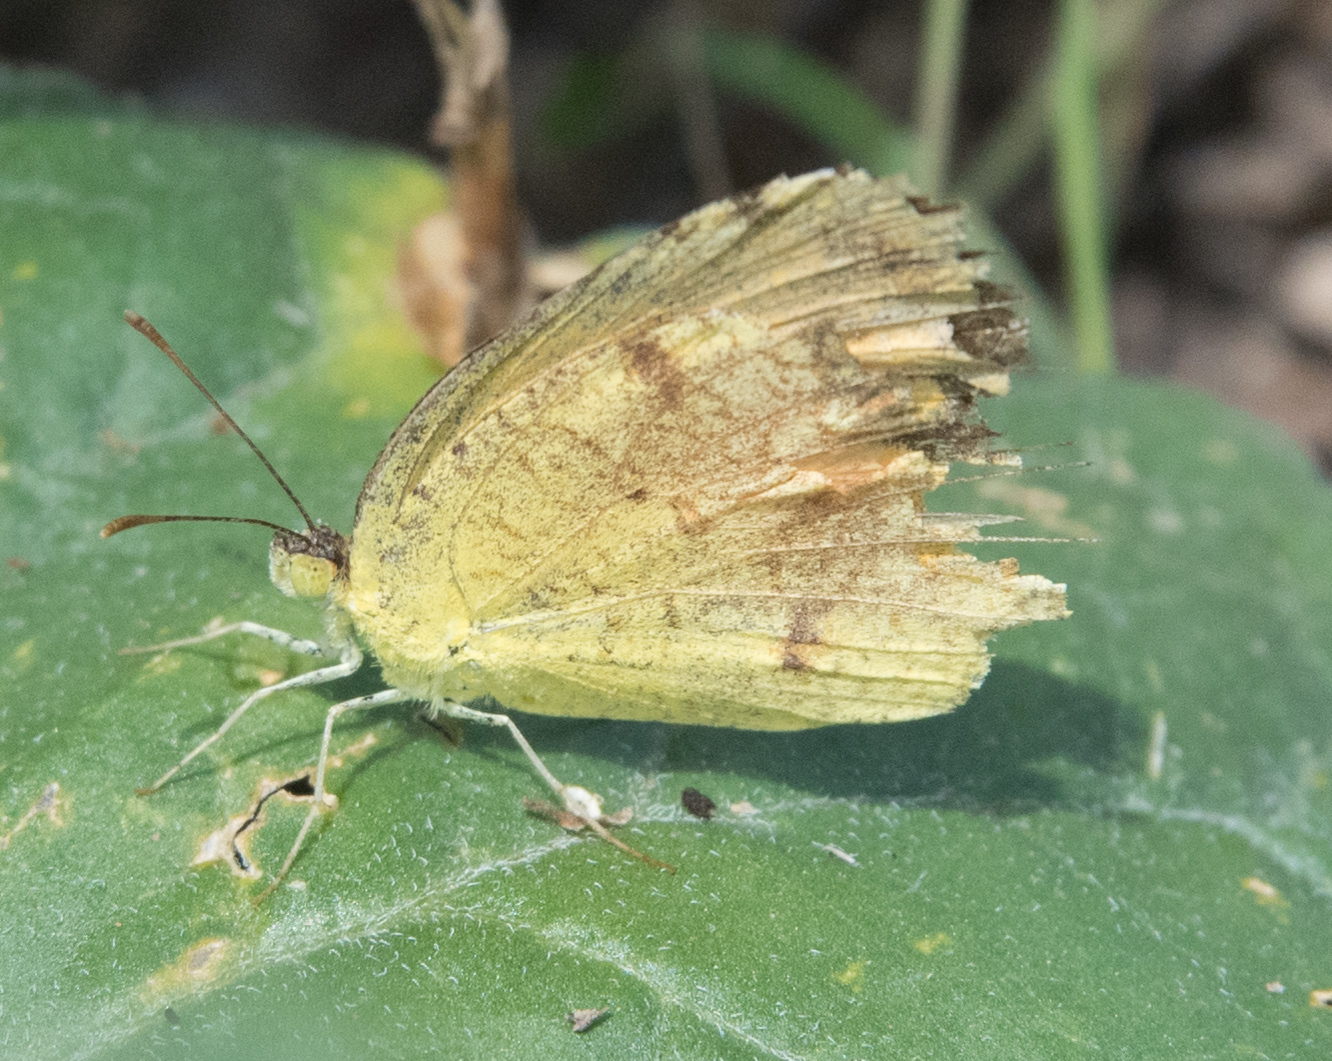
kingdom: Animalia
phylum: Arthropoda
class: Insecta
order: Lepidoptera
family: Pieridae
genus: Abaeis
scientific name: Abaeis nicippe
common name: Sleepy orange
